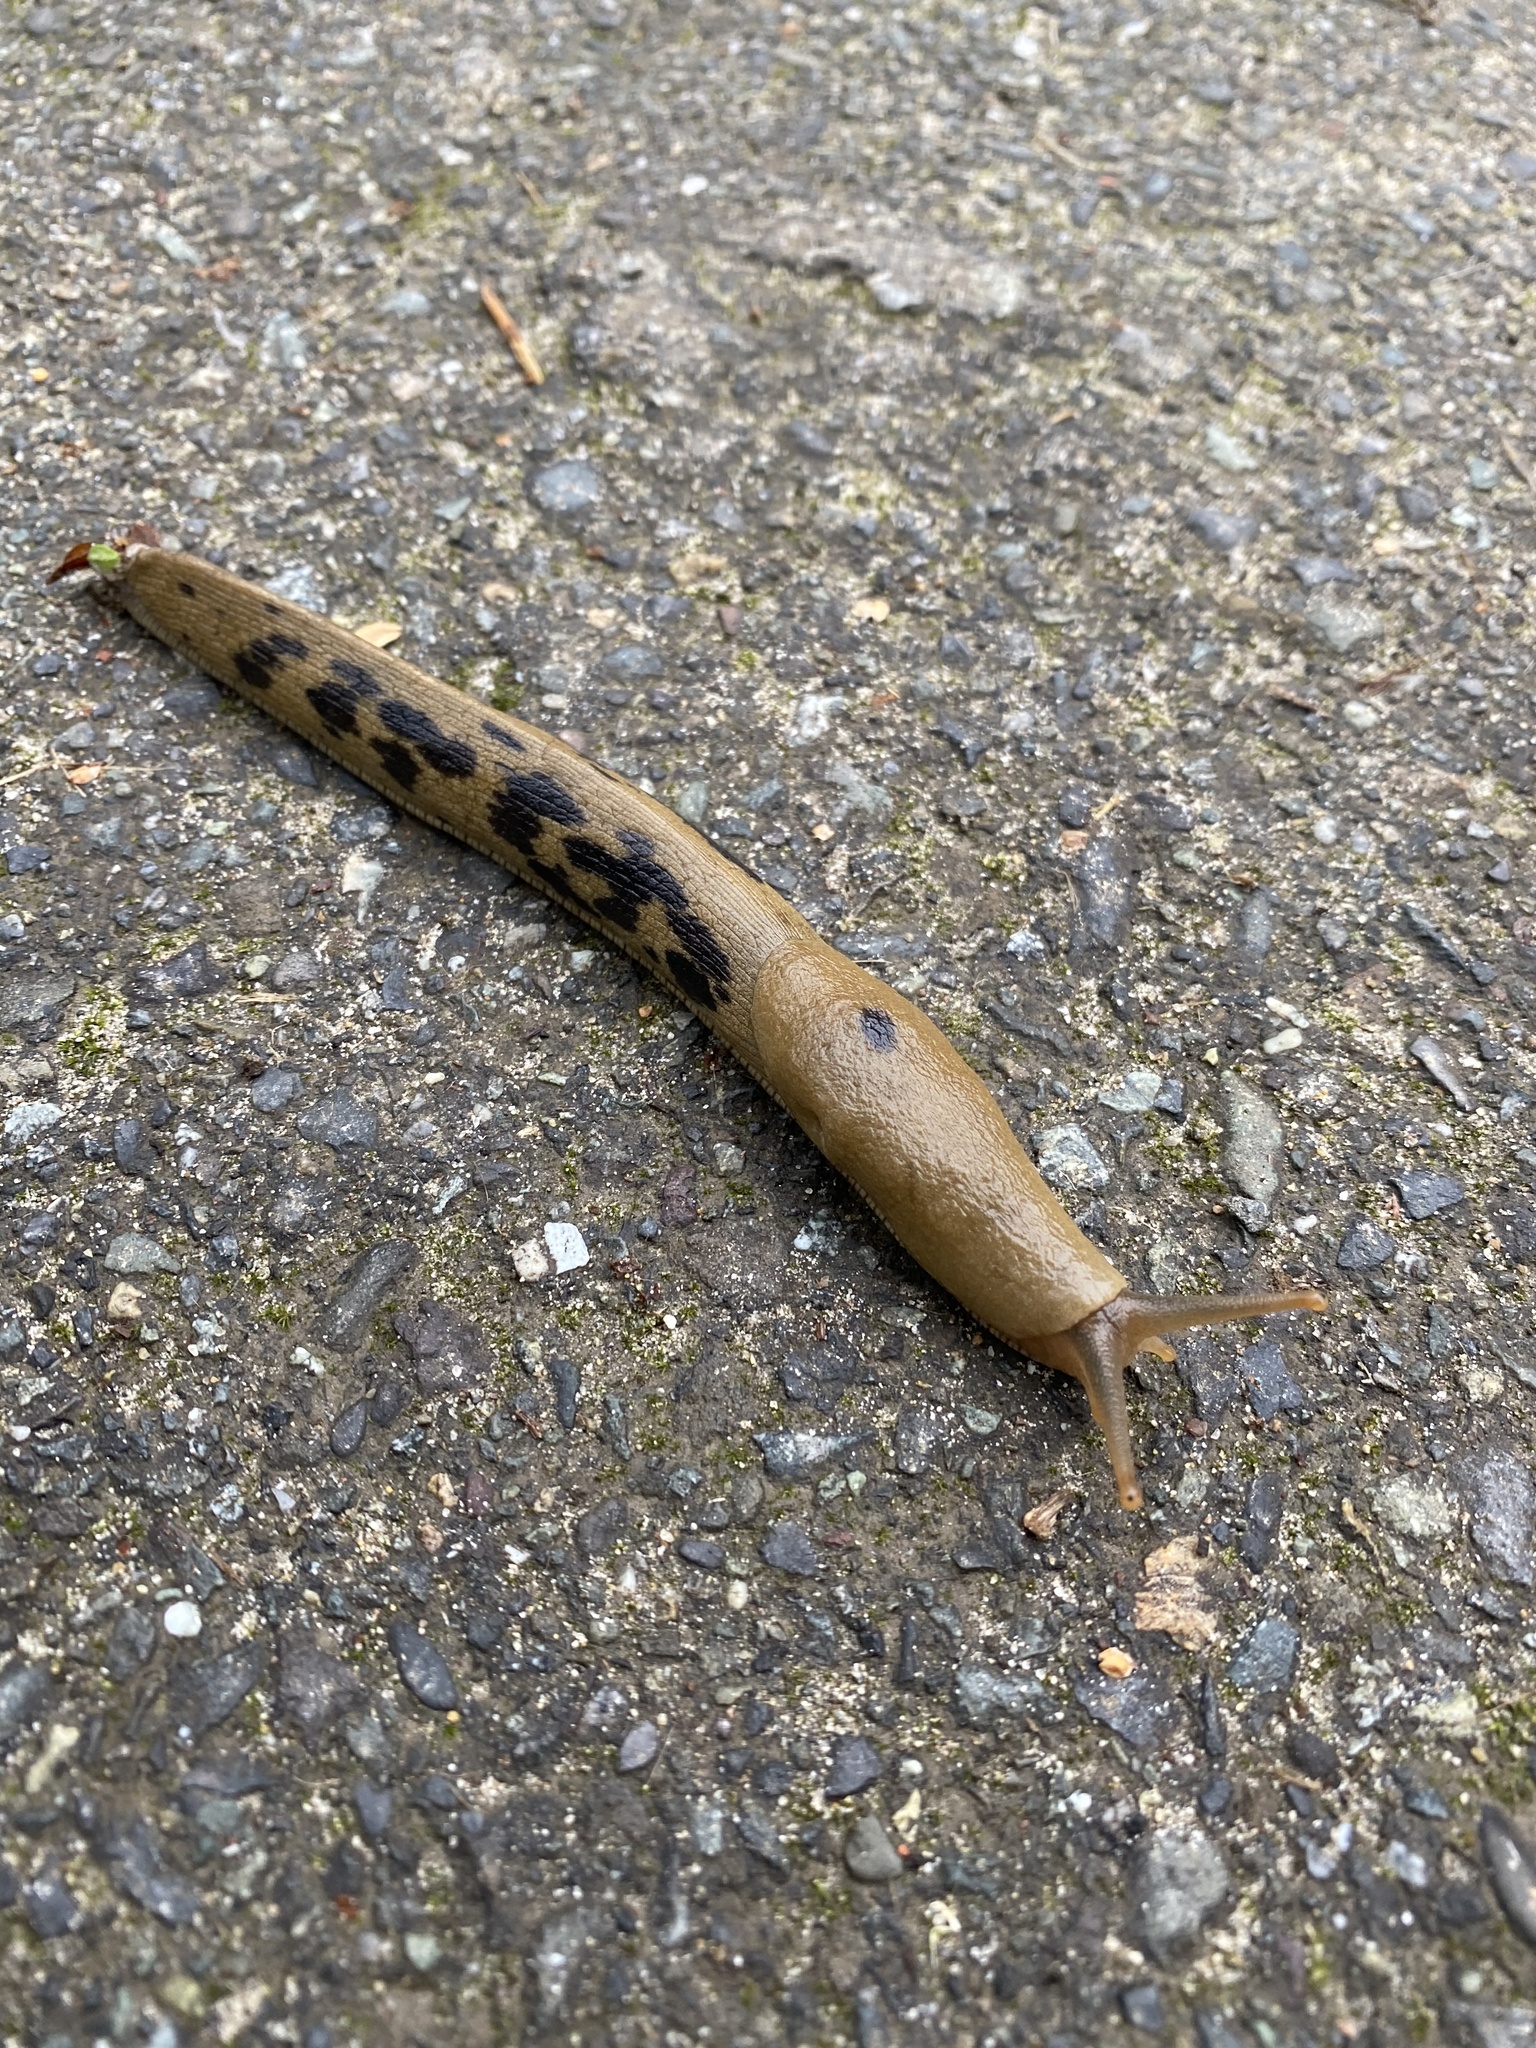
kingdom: Animalia
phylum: Mollusca
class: Gastropoda
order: Stylommatophora
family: Ariolimacidae
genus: Ariolimax
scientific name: Ariolimax columbianus
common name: Pacific banana slug
